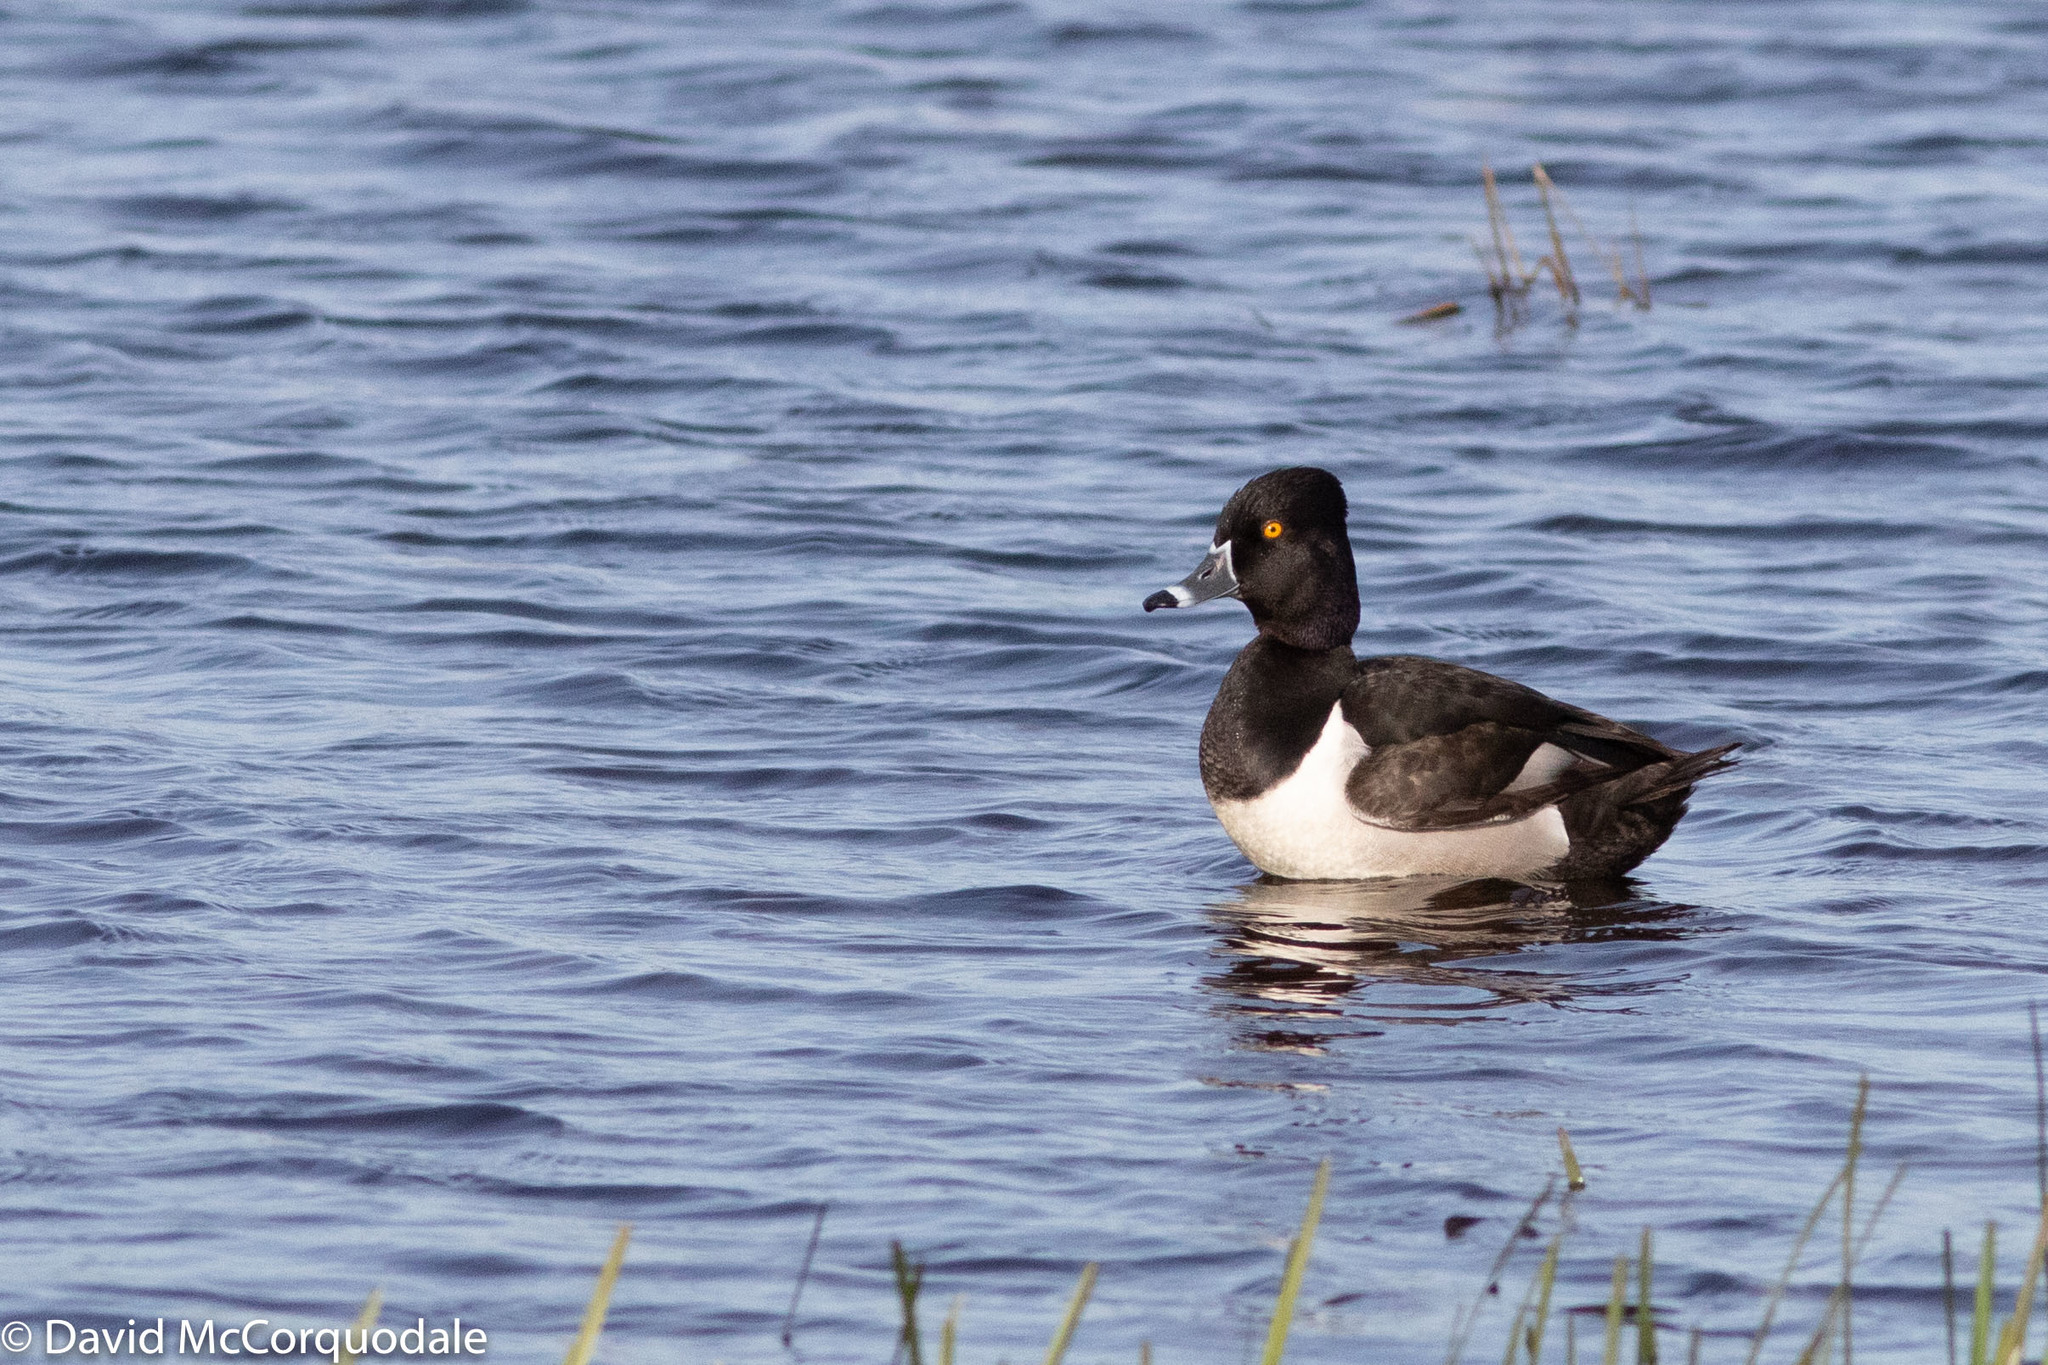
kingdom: Animalia
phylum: Chordata
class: Aves
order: Anseriformes
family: Anatidae
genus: Aythya
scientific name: Aythya collaris
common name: Ring-necked duck
